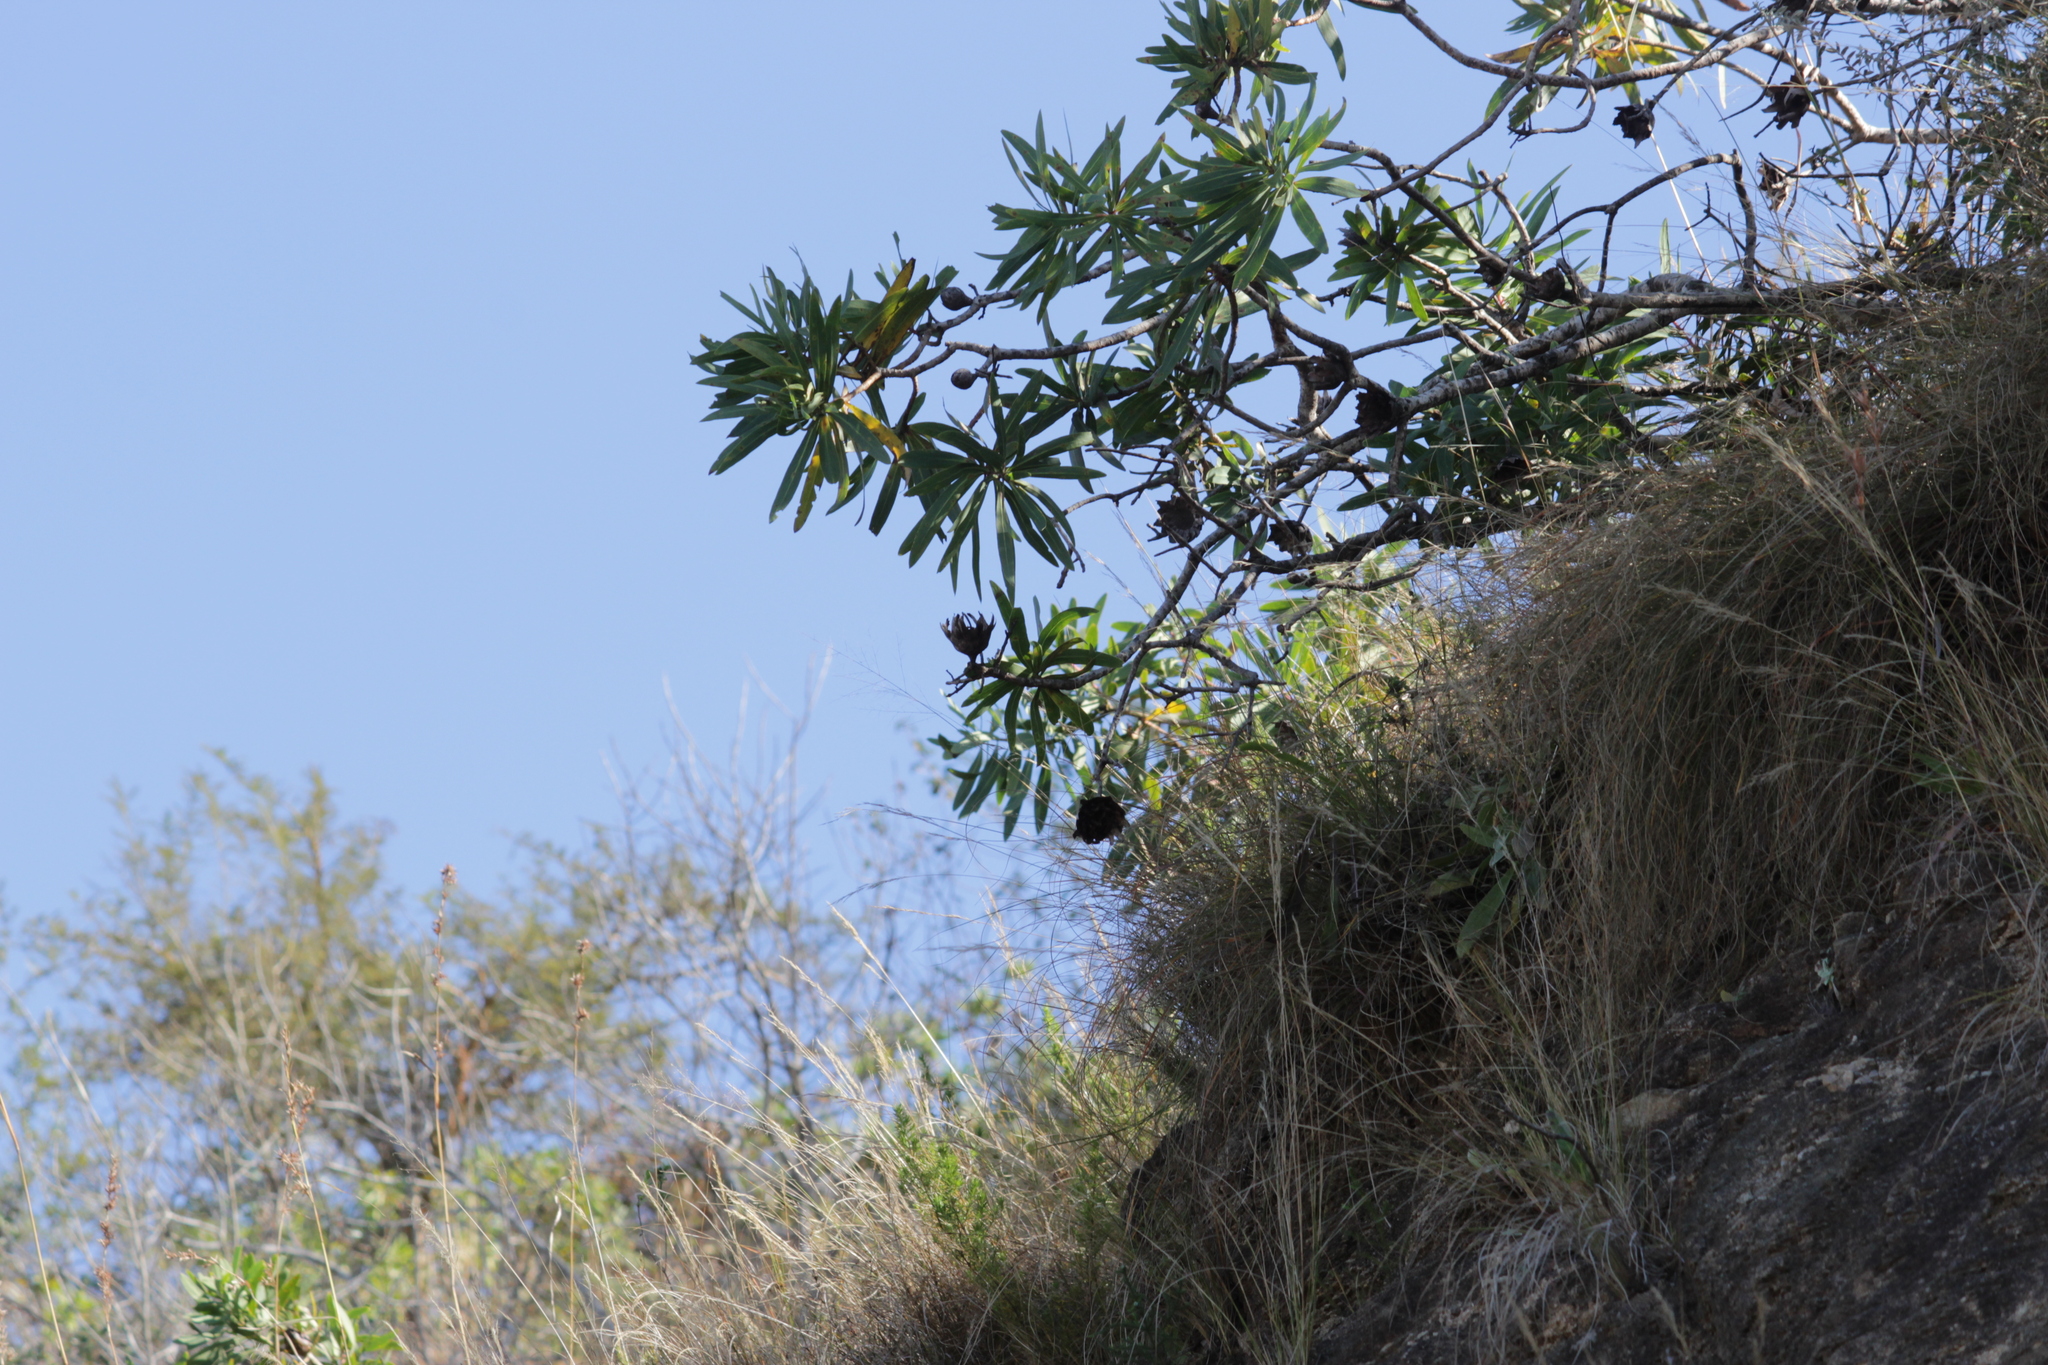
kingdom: Plantae
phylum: Tracheophyta
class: Magnoliopsida
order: Proteales
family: Proteaceae
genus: Protea
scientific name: Protea caffra
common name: Common sugarbush
